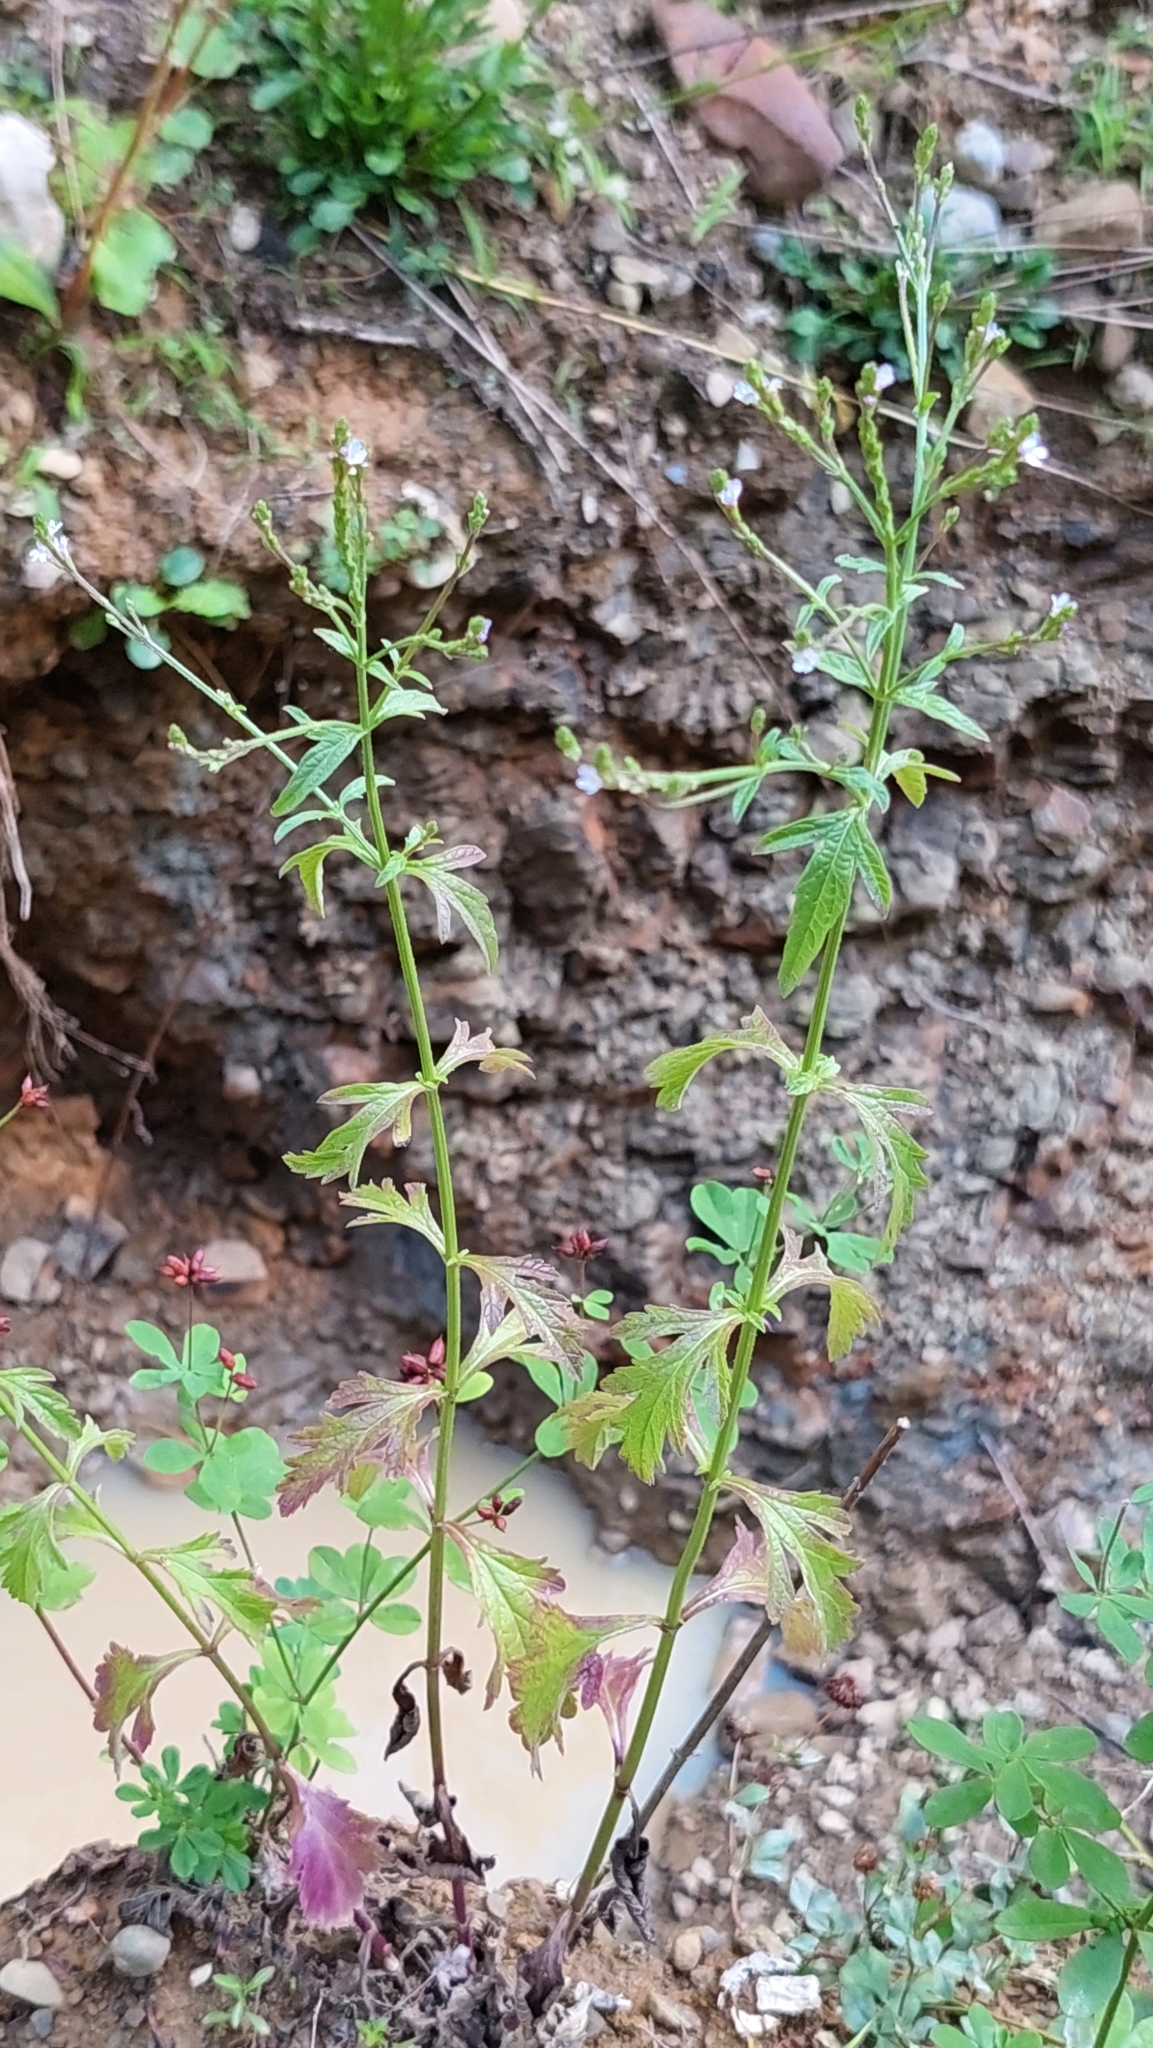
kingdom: Plantae
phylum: Tracheophyta
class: Magnoliopsida
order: Lamiales
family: Verbenaceae
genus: Verbena
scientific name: Verbena officinalis
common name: Vervain
